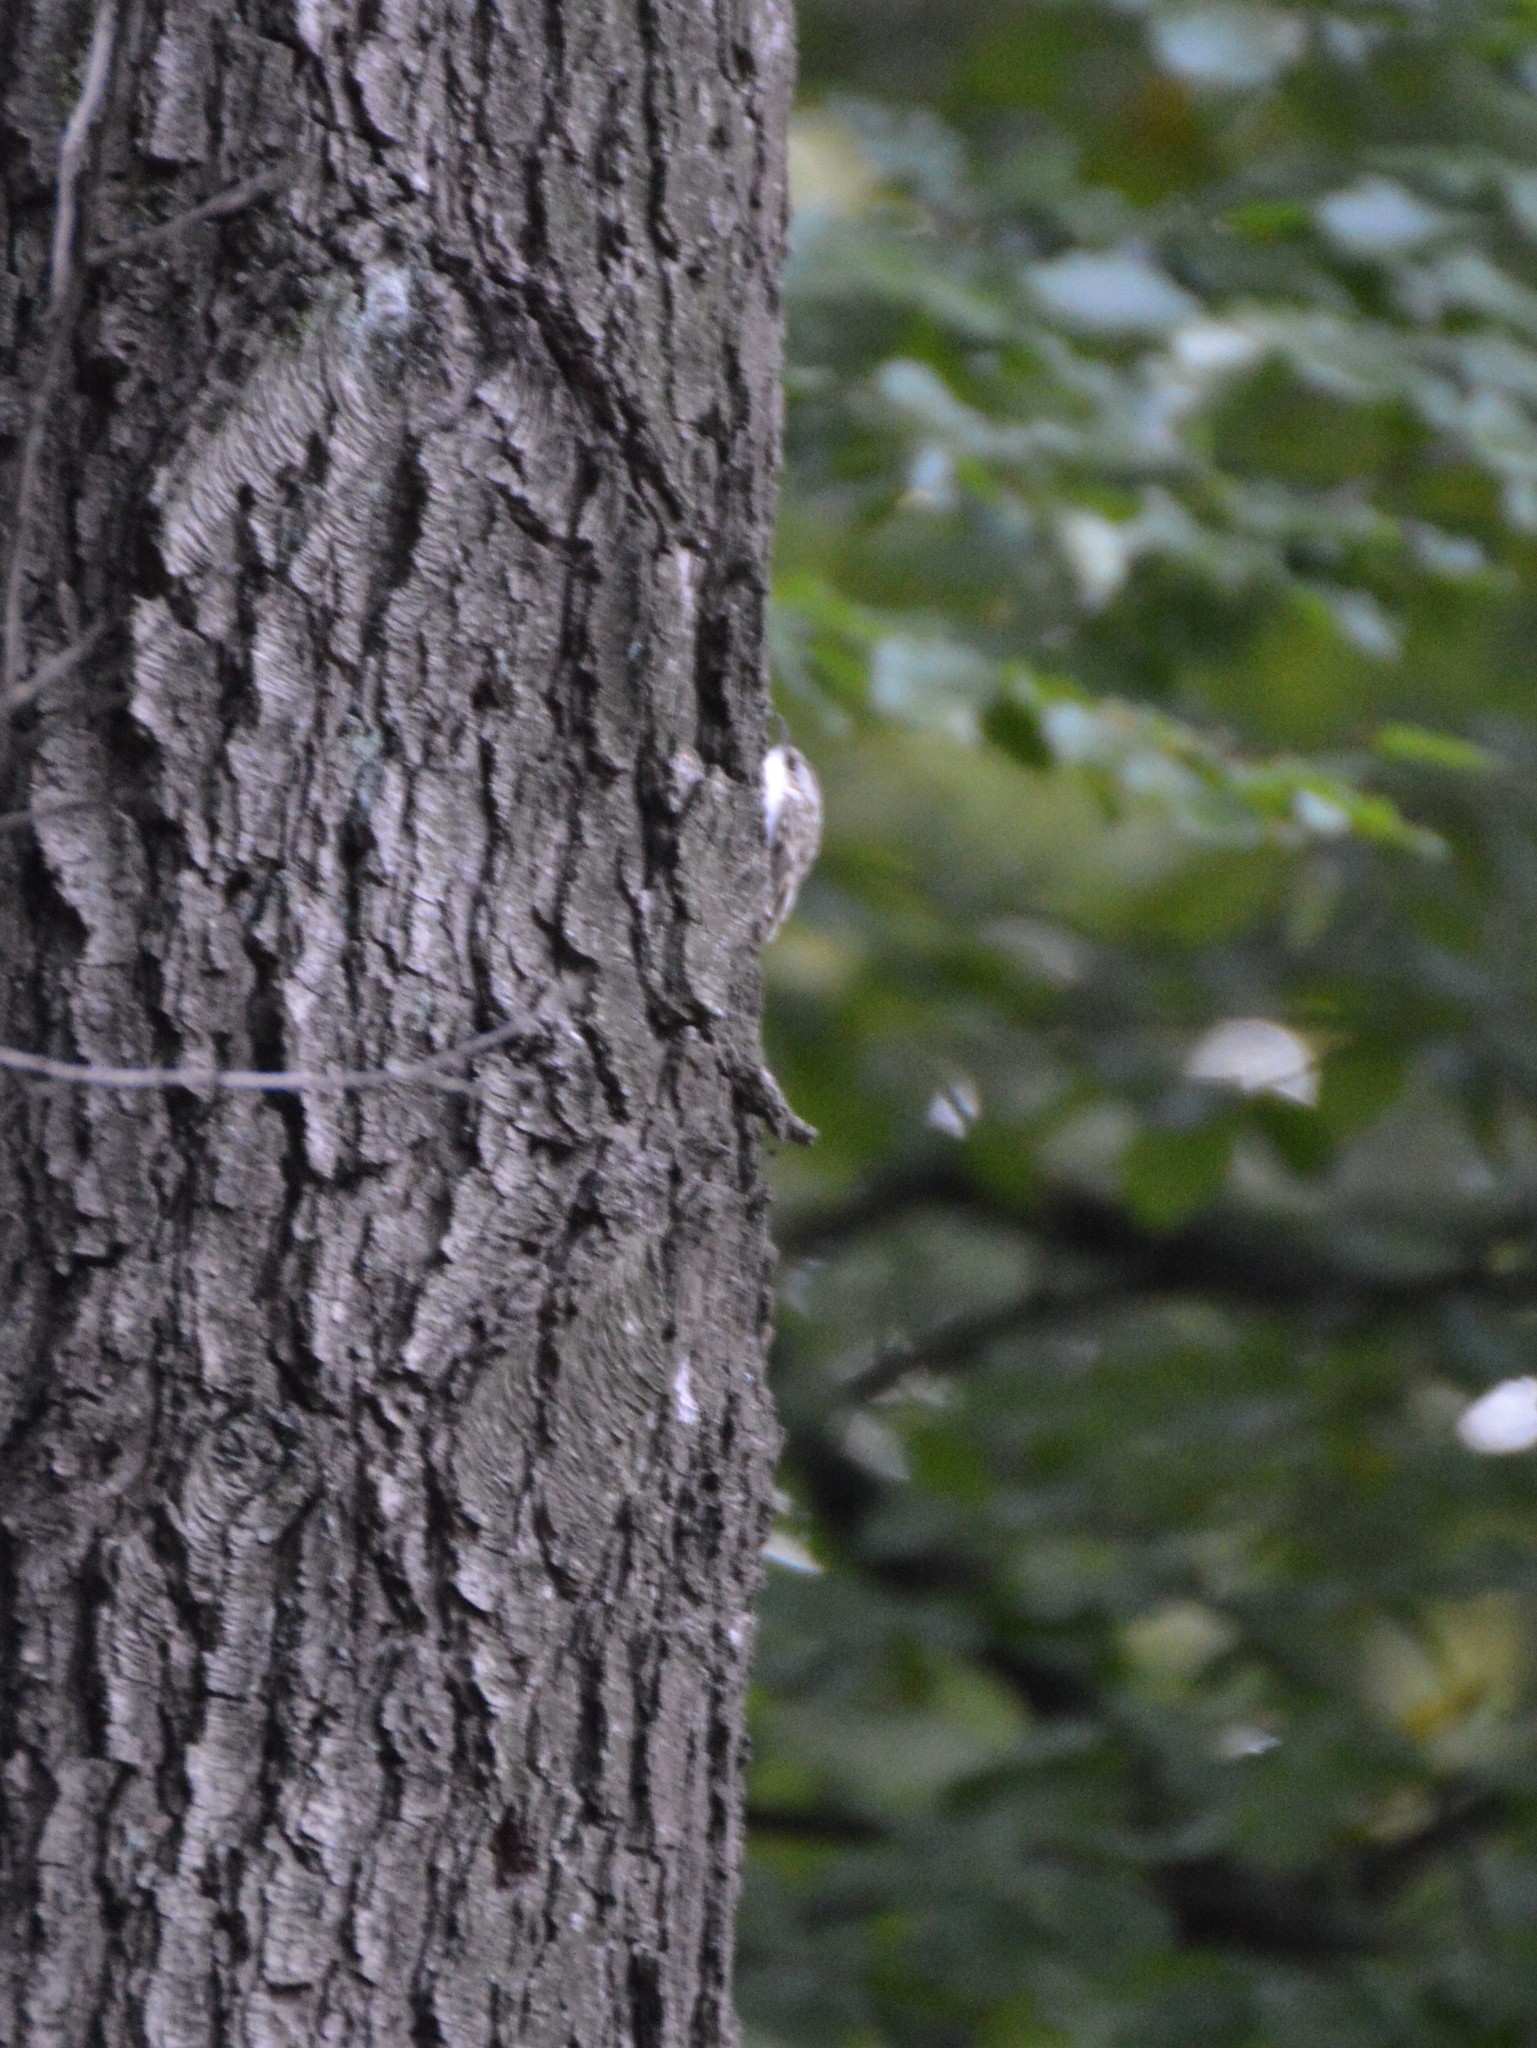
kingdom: Animalia
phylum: Chordata
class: Aves
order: Passeriformes
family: Certhiidae
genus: Certhia
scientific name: Certhia brachydactyla
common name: Short-toed treecreeper
